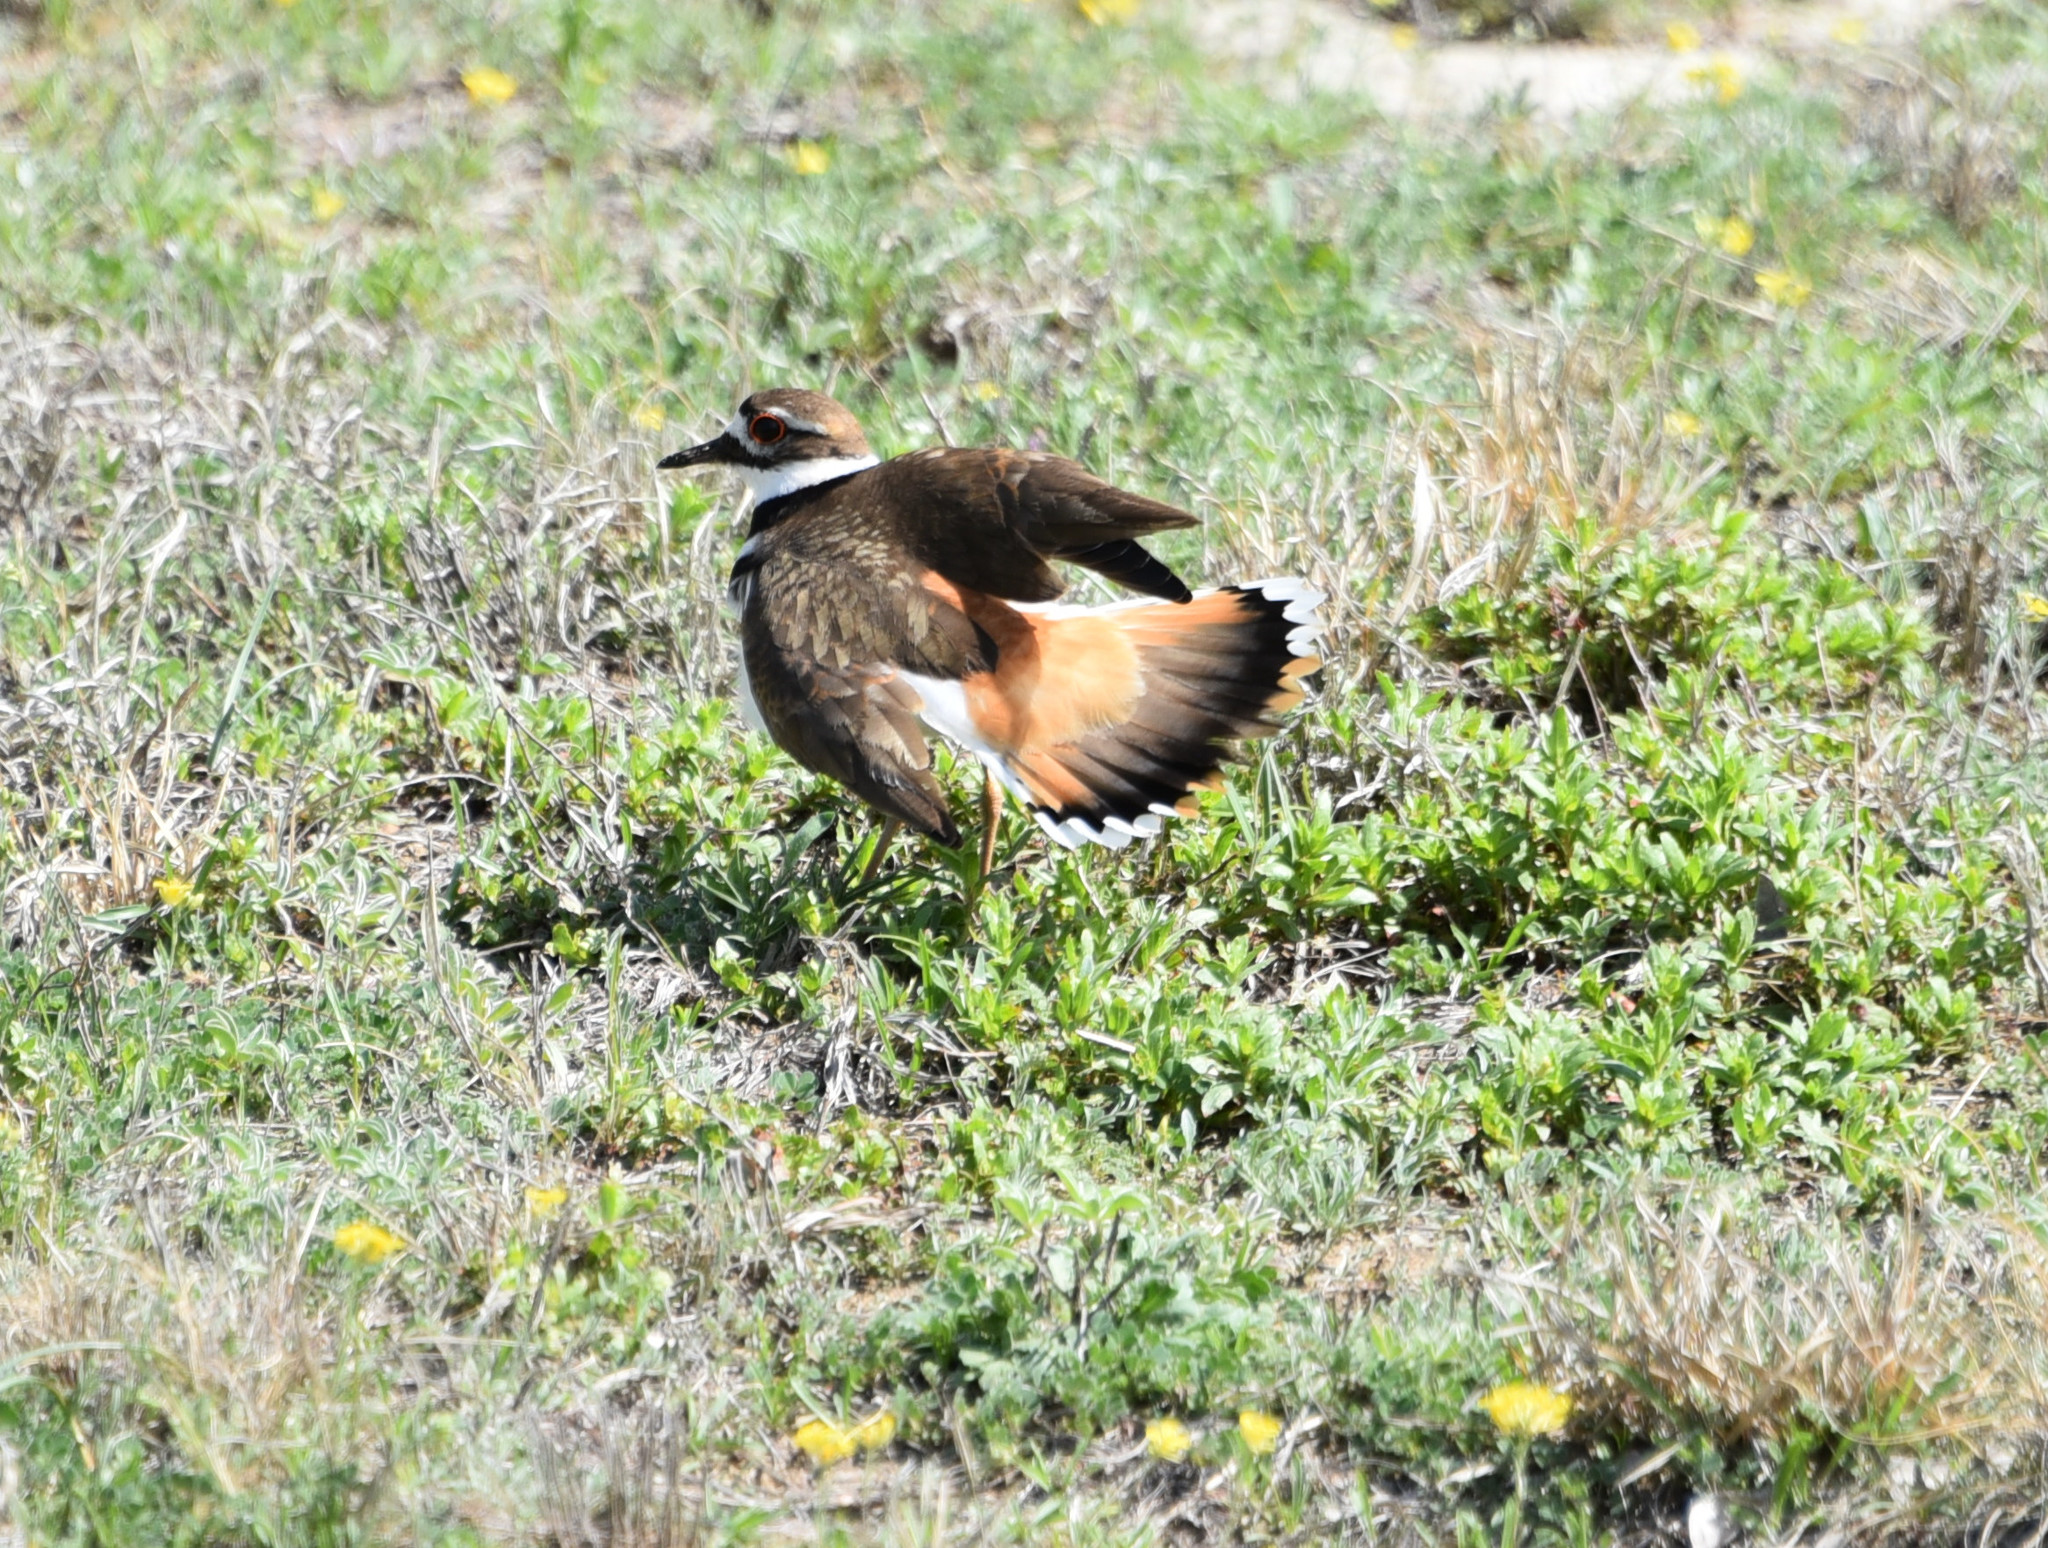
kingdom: Animalia
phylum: Chordata
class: Aves
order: Charadriiformes
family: Charadriidae
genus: Charadrius
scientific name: Charadrius vociferus
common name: Killdeer
